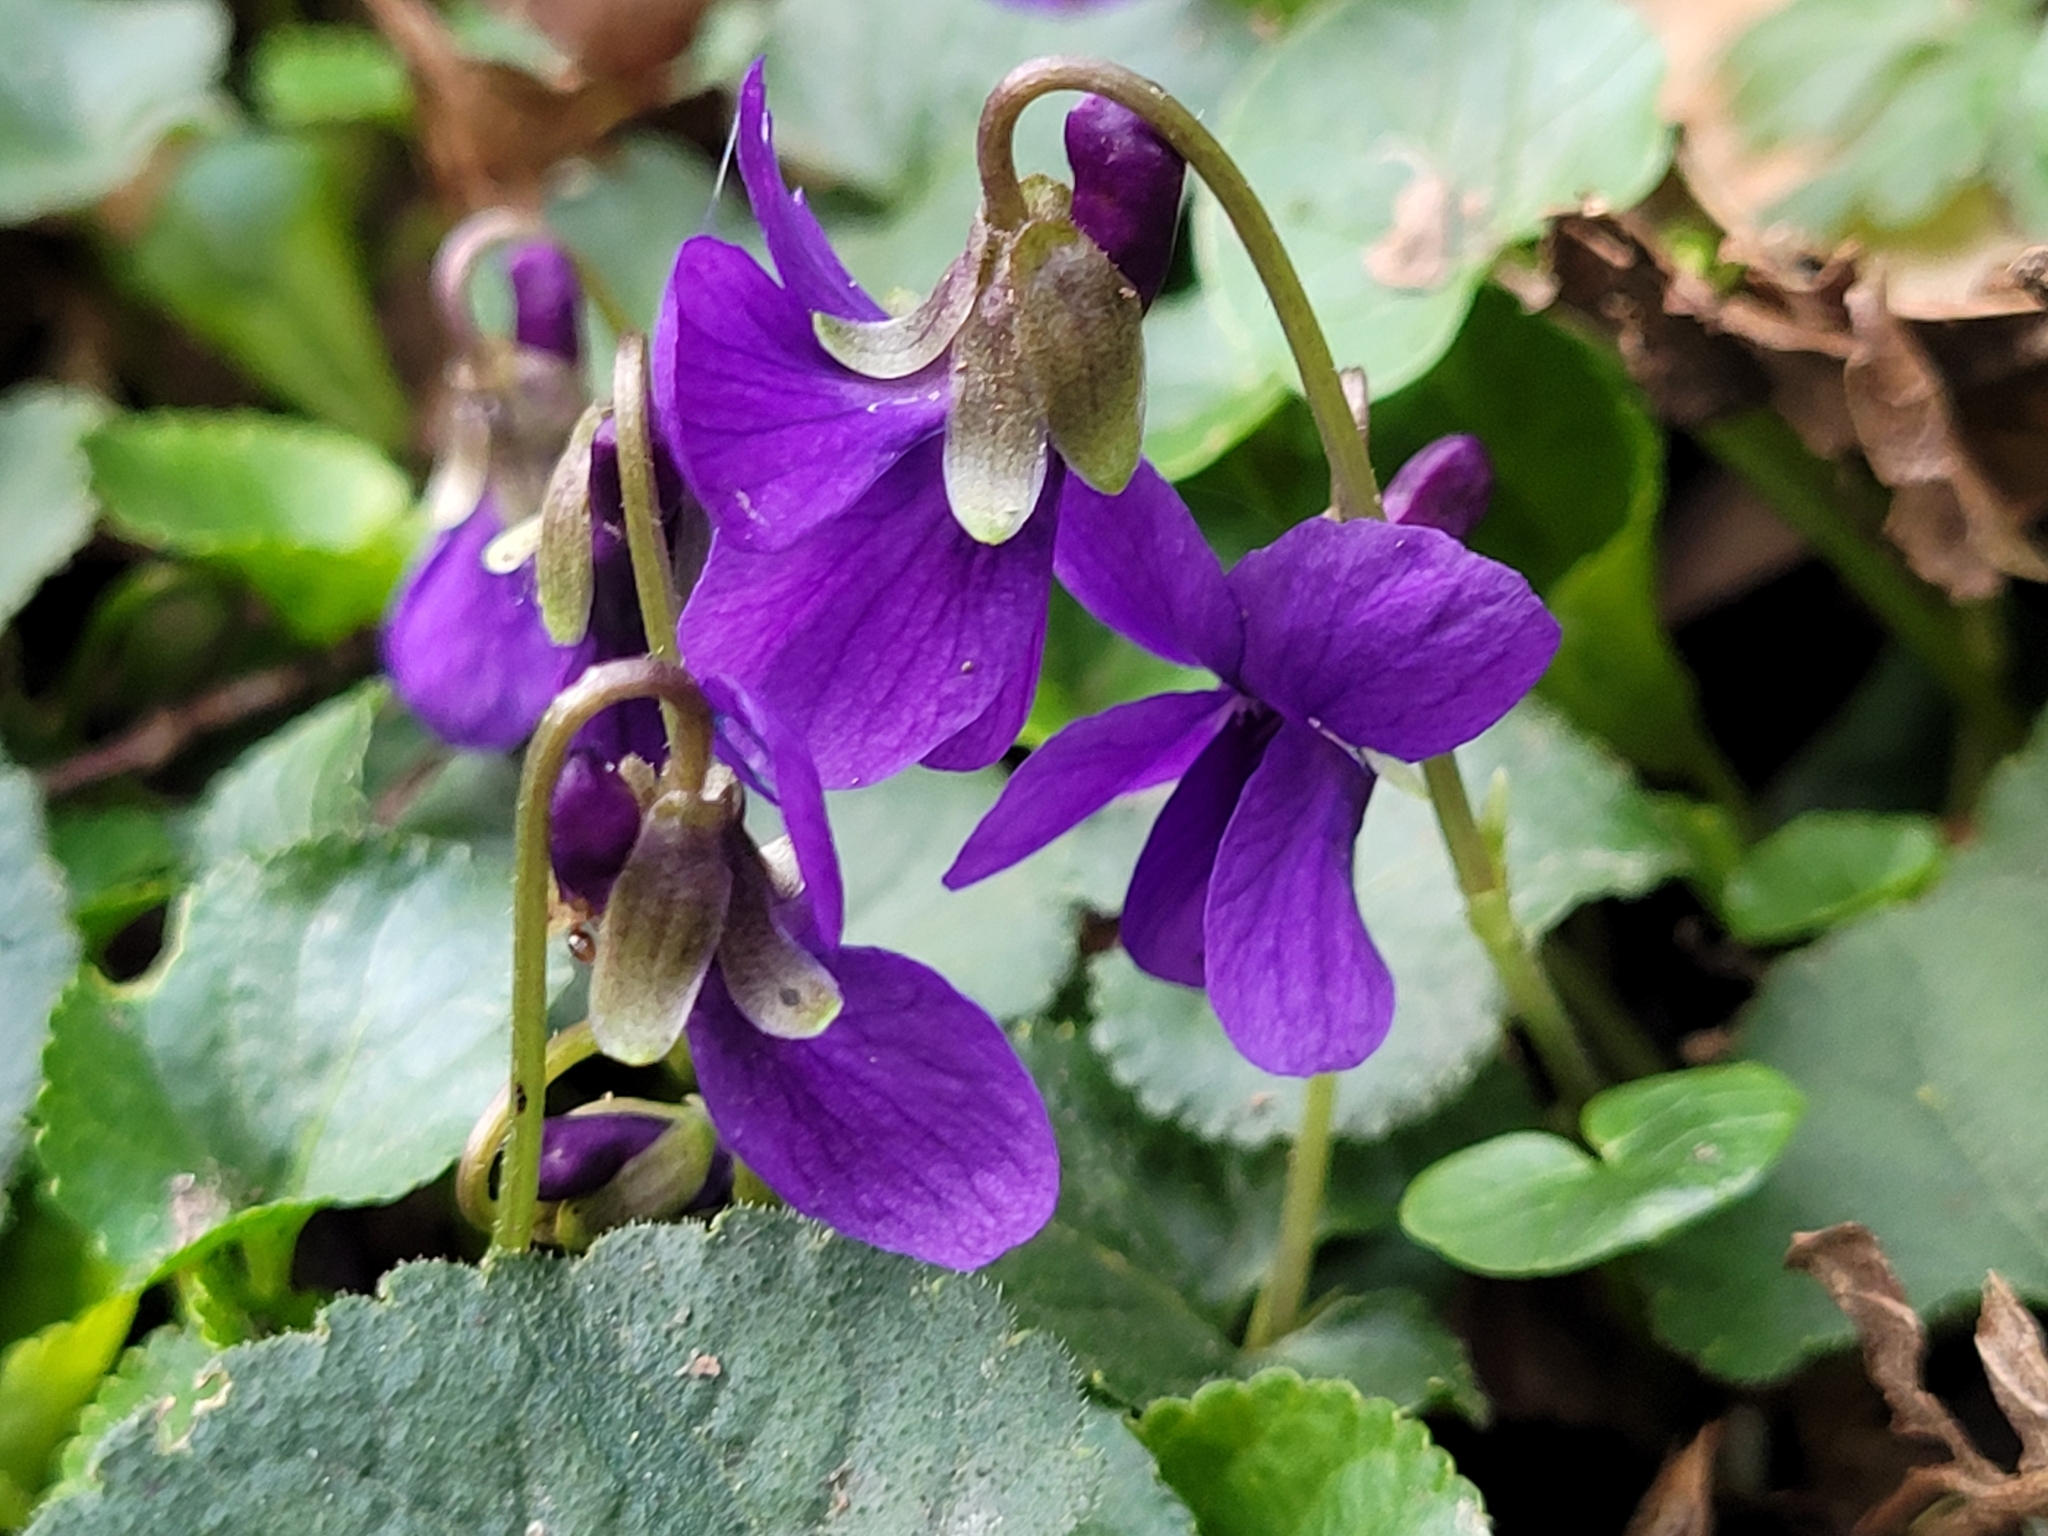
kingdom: Plantae
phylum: Tracheophyta
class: Magnoliopsida
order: Malpighiales
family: Violaceae
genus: Viola
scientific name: Viola odorata
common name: Sweet violet
